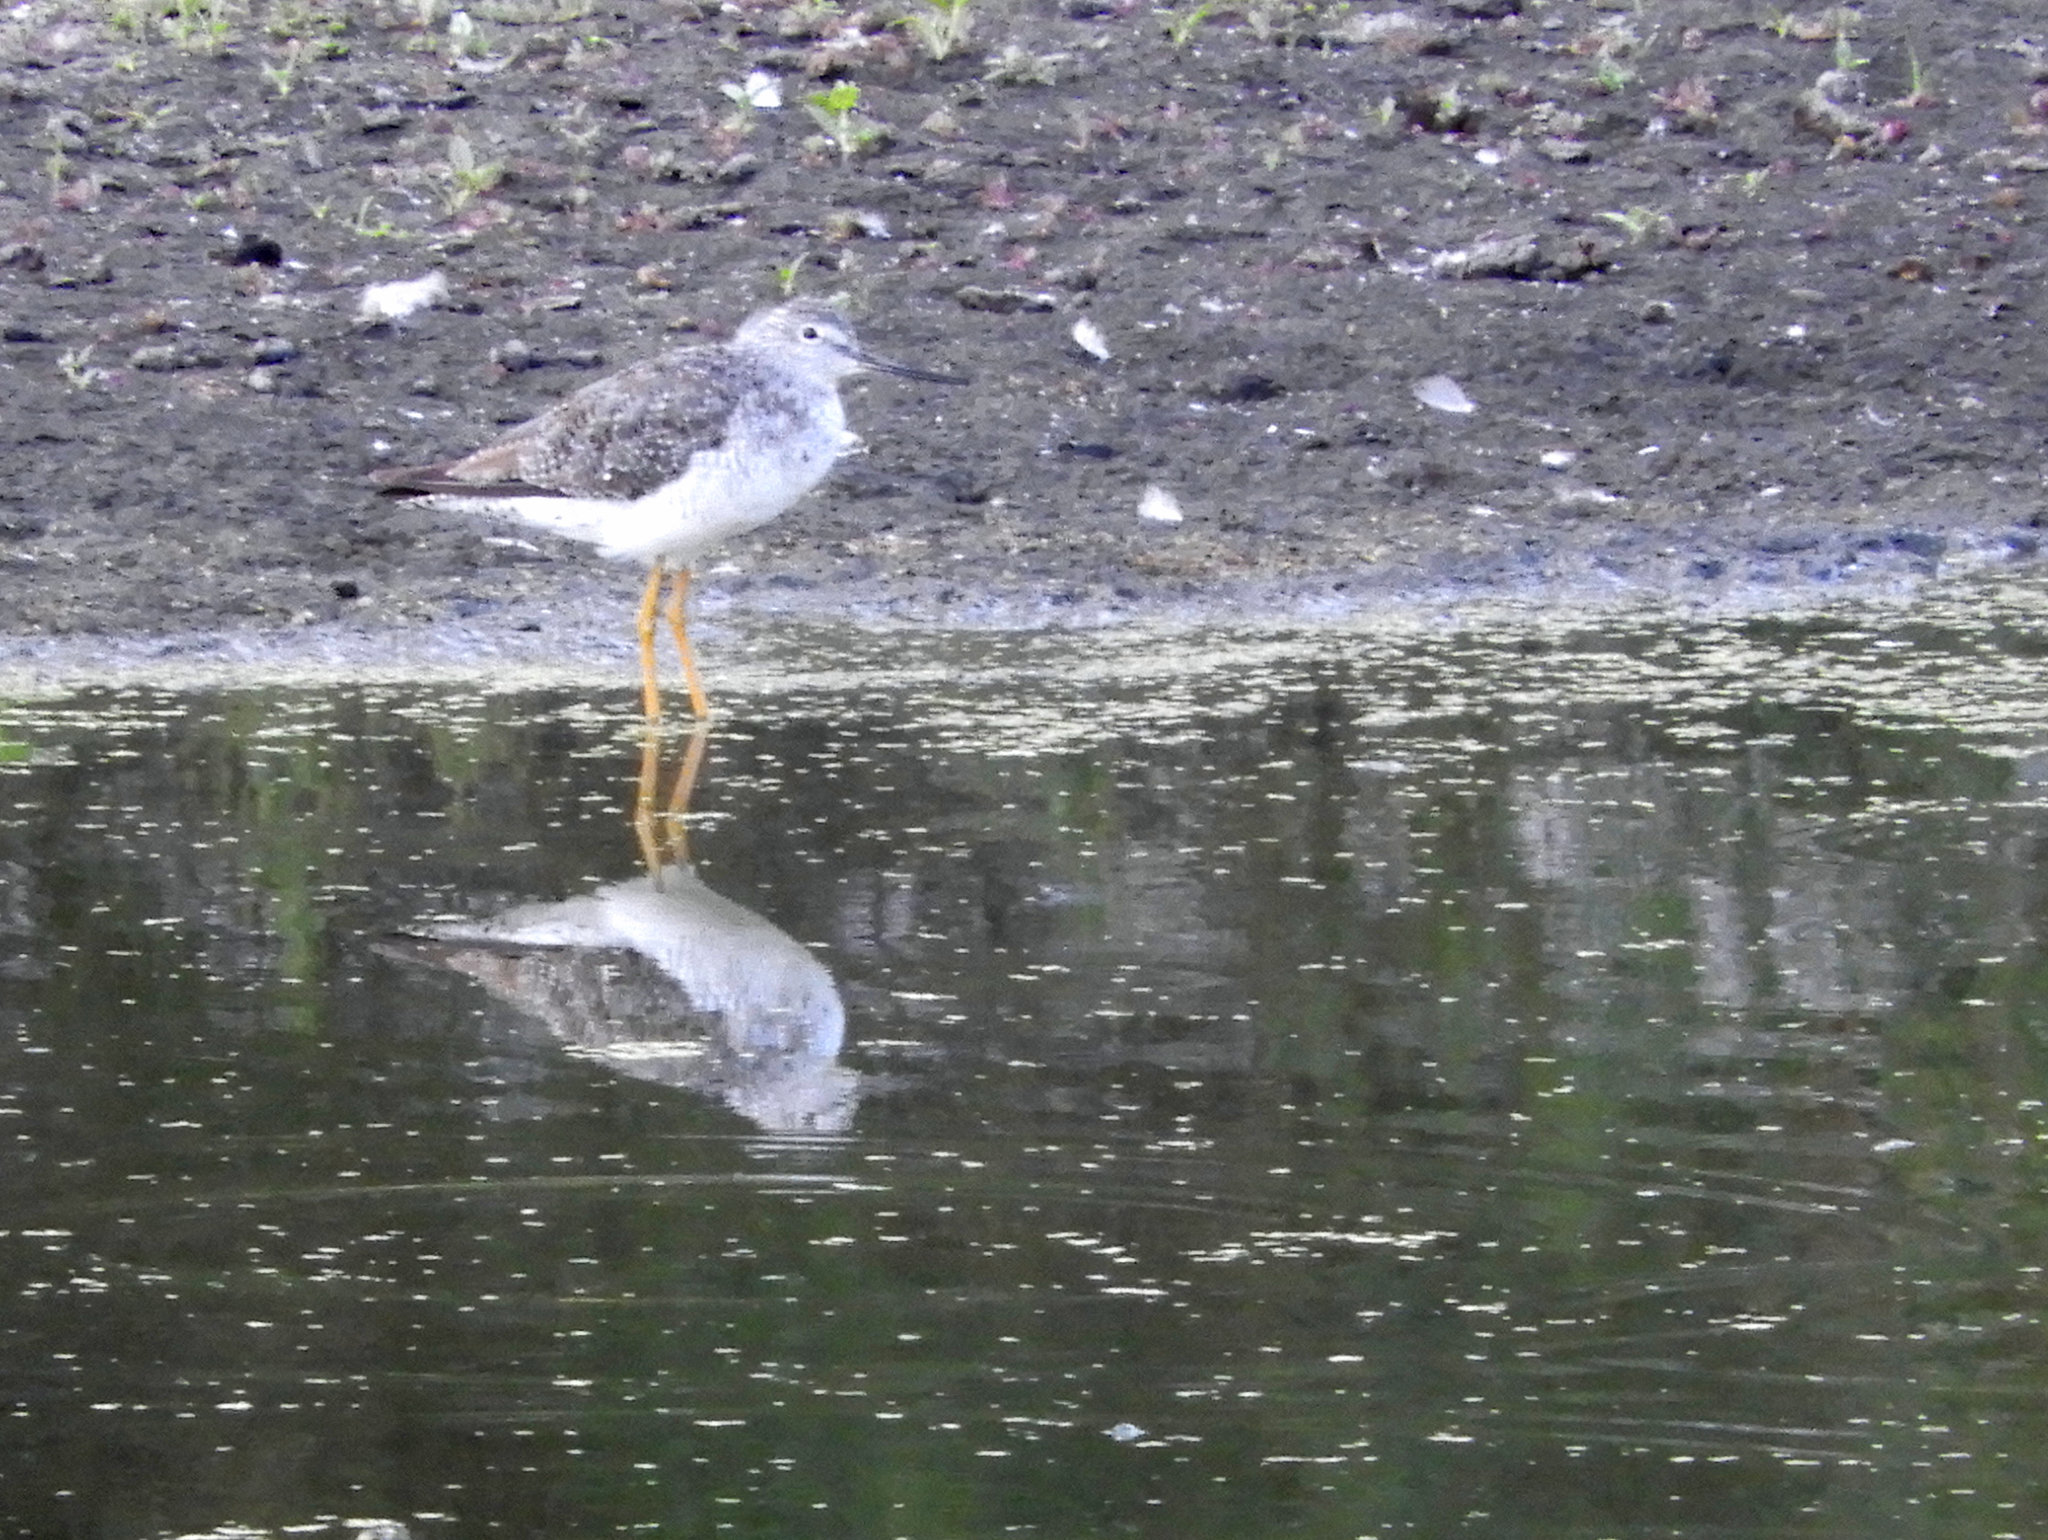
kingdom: Animalia
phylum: Chordata
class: Aves
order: Charadriiformes
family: Scolopacidae
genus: Tringa
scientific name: Tringa melanoleuca
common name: Greater yellowlegs
